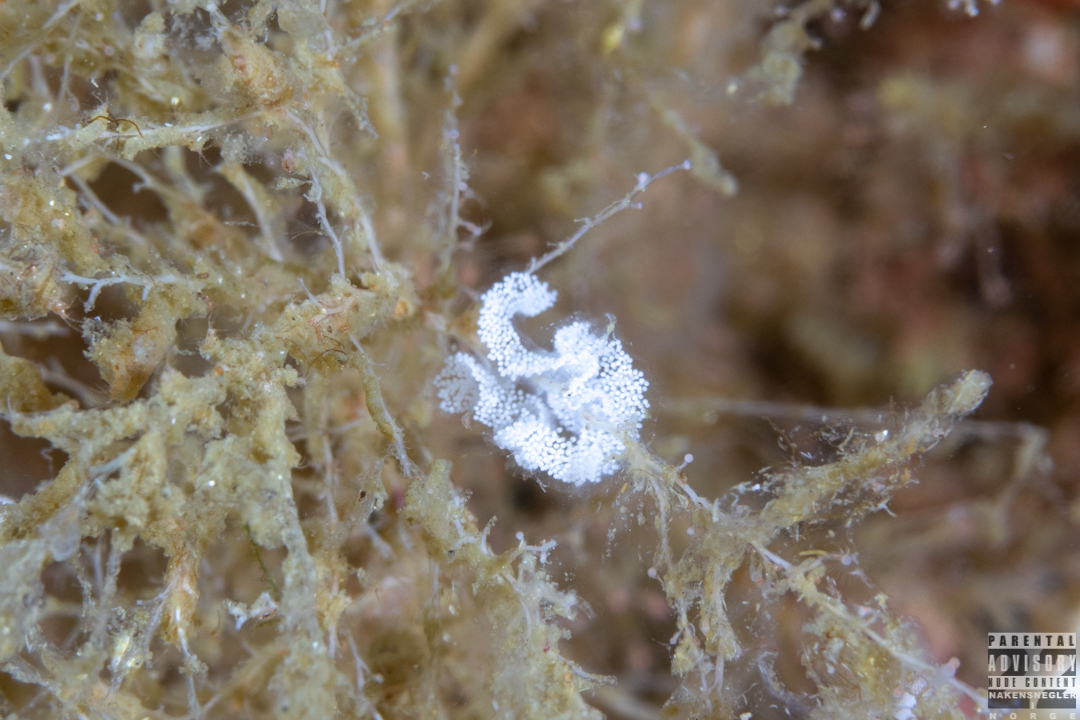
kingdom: Animalia
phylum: Mollusca
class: Gastropoda
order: Nudibranchia
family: Eubranchidae
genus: Amphorina
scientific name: Amphorina farrani
